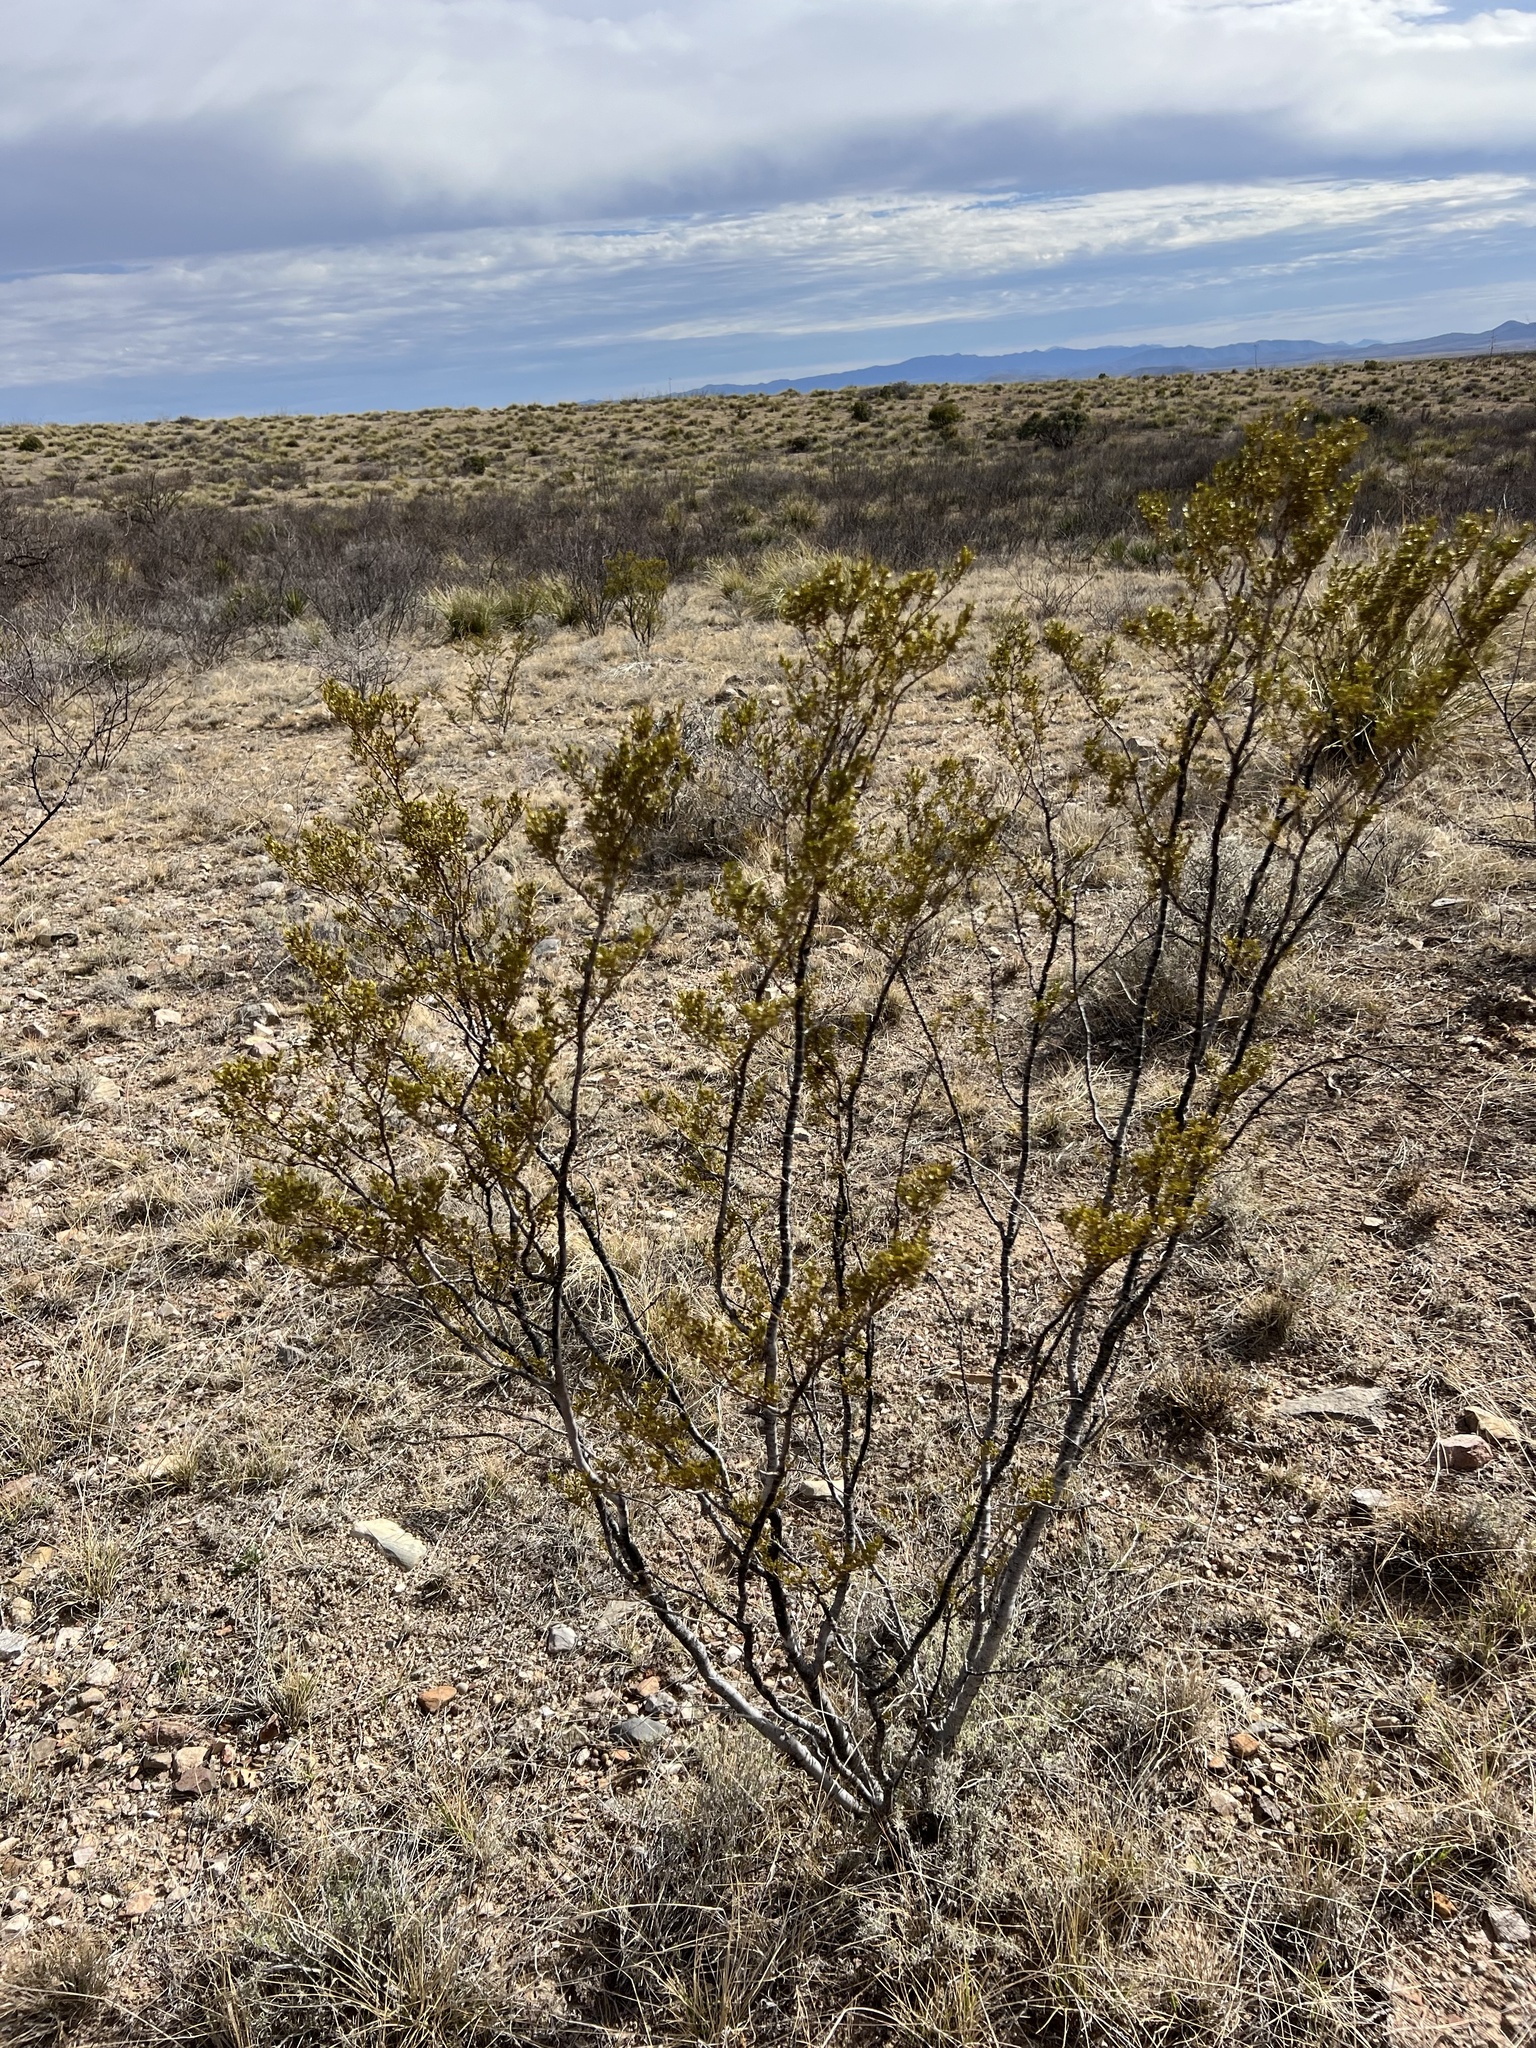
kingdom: Plantae
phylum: Tracheophyta
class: Magnoliopsida
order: Zygophyllales
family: Zygophyllaceae
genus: Larrea
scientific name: Larrea tridentata
